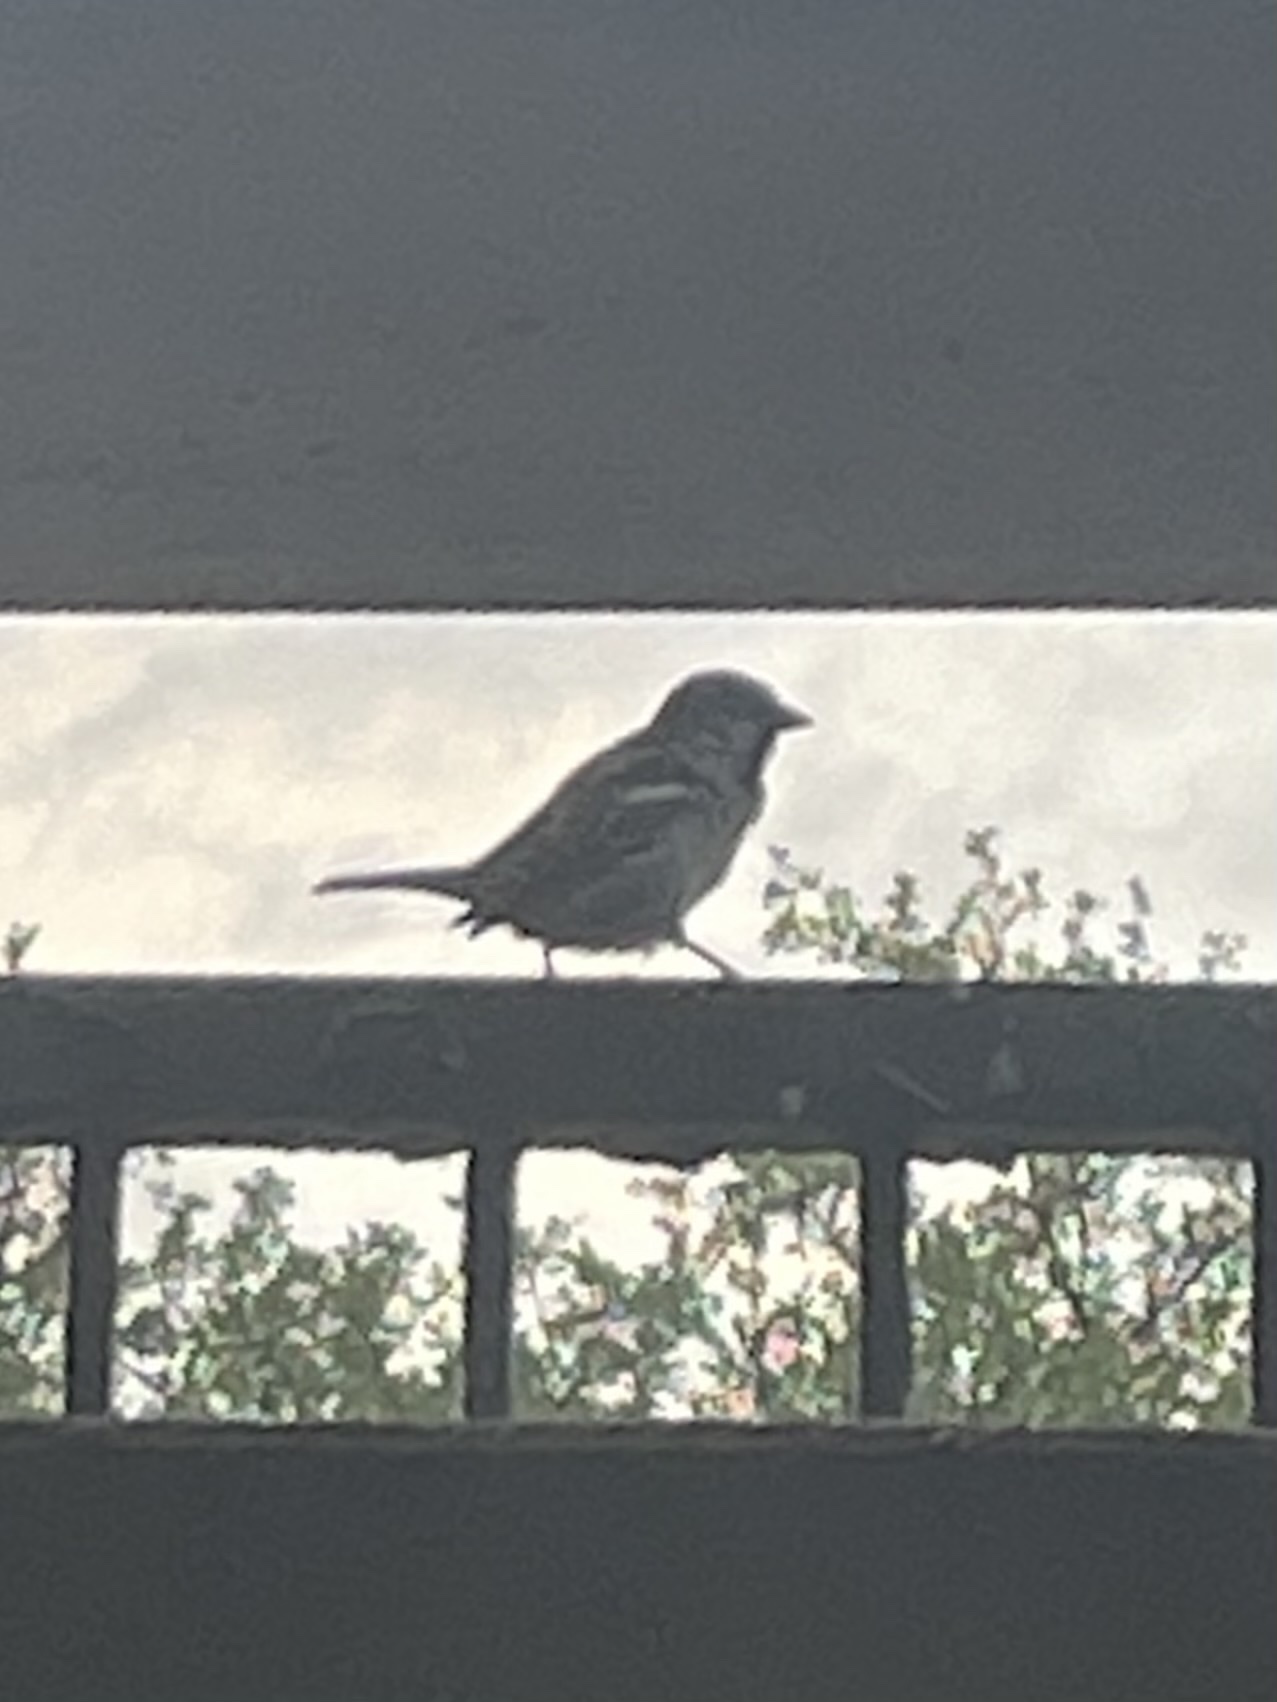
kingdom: Animalia
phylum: Chordata
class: Aves
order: Passeriformes
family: Passeridae
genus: Passer
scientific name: Passer domesticus
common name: House sparrow
